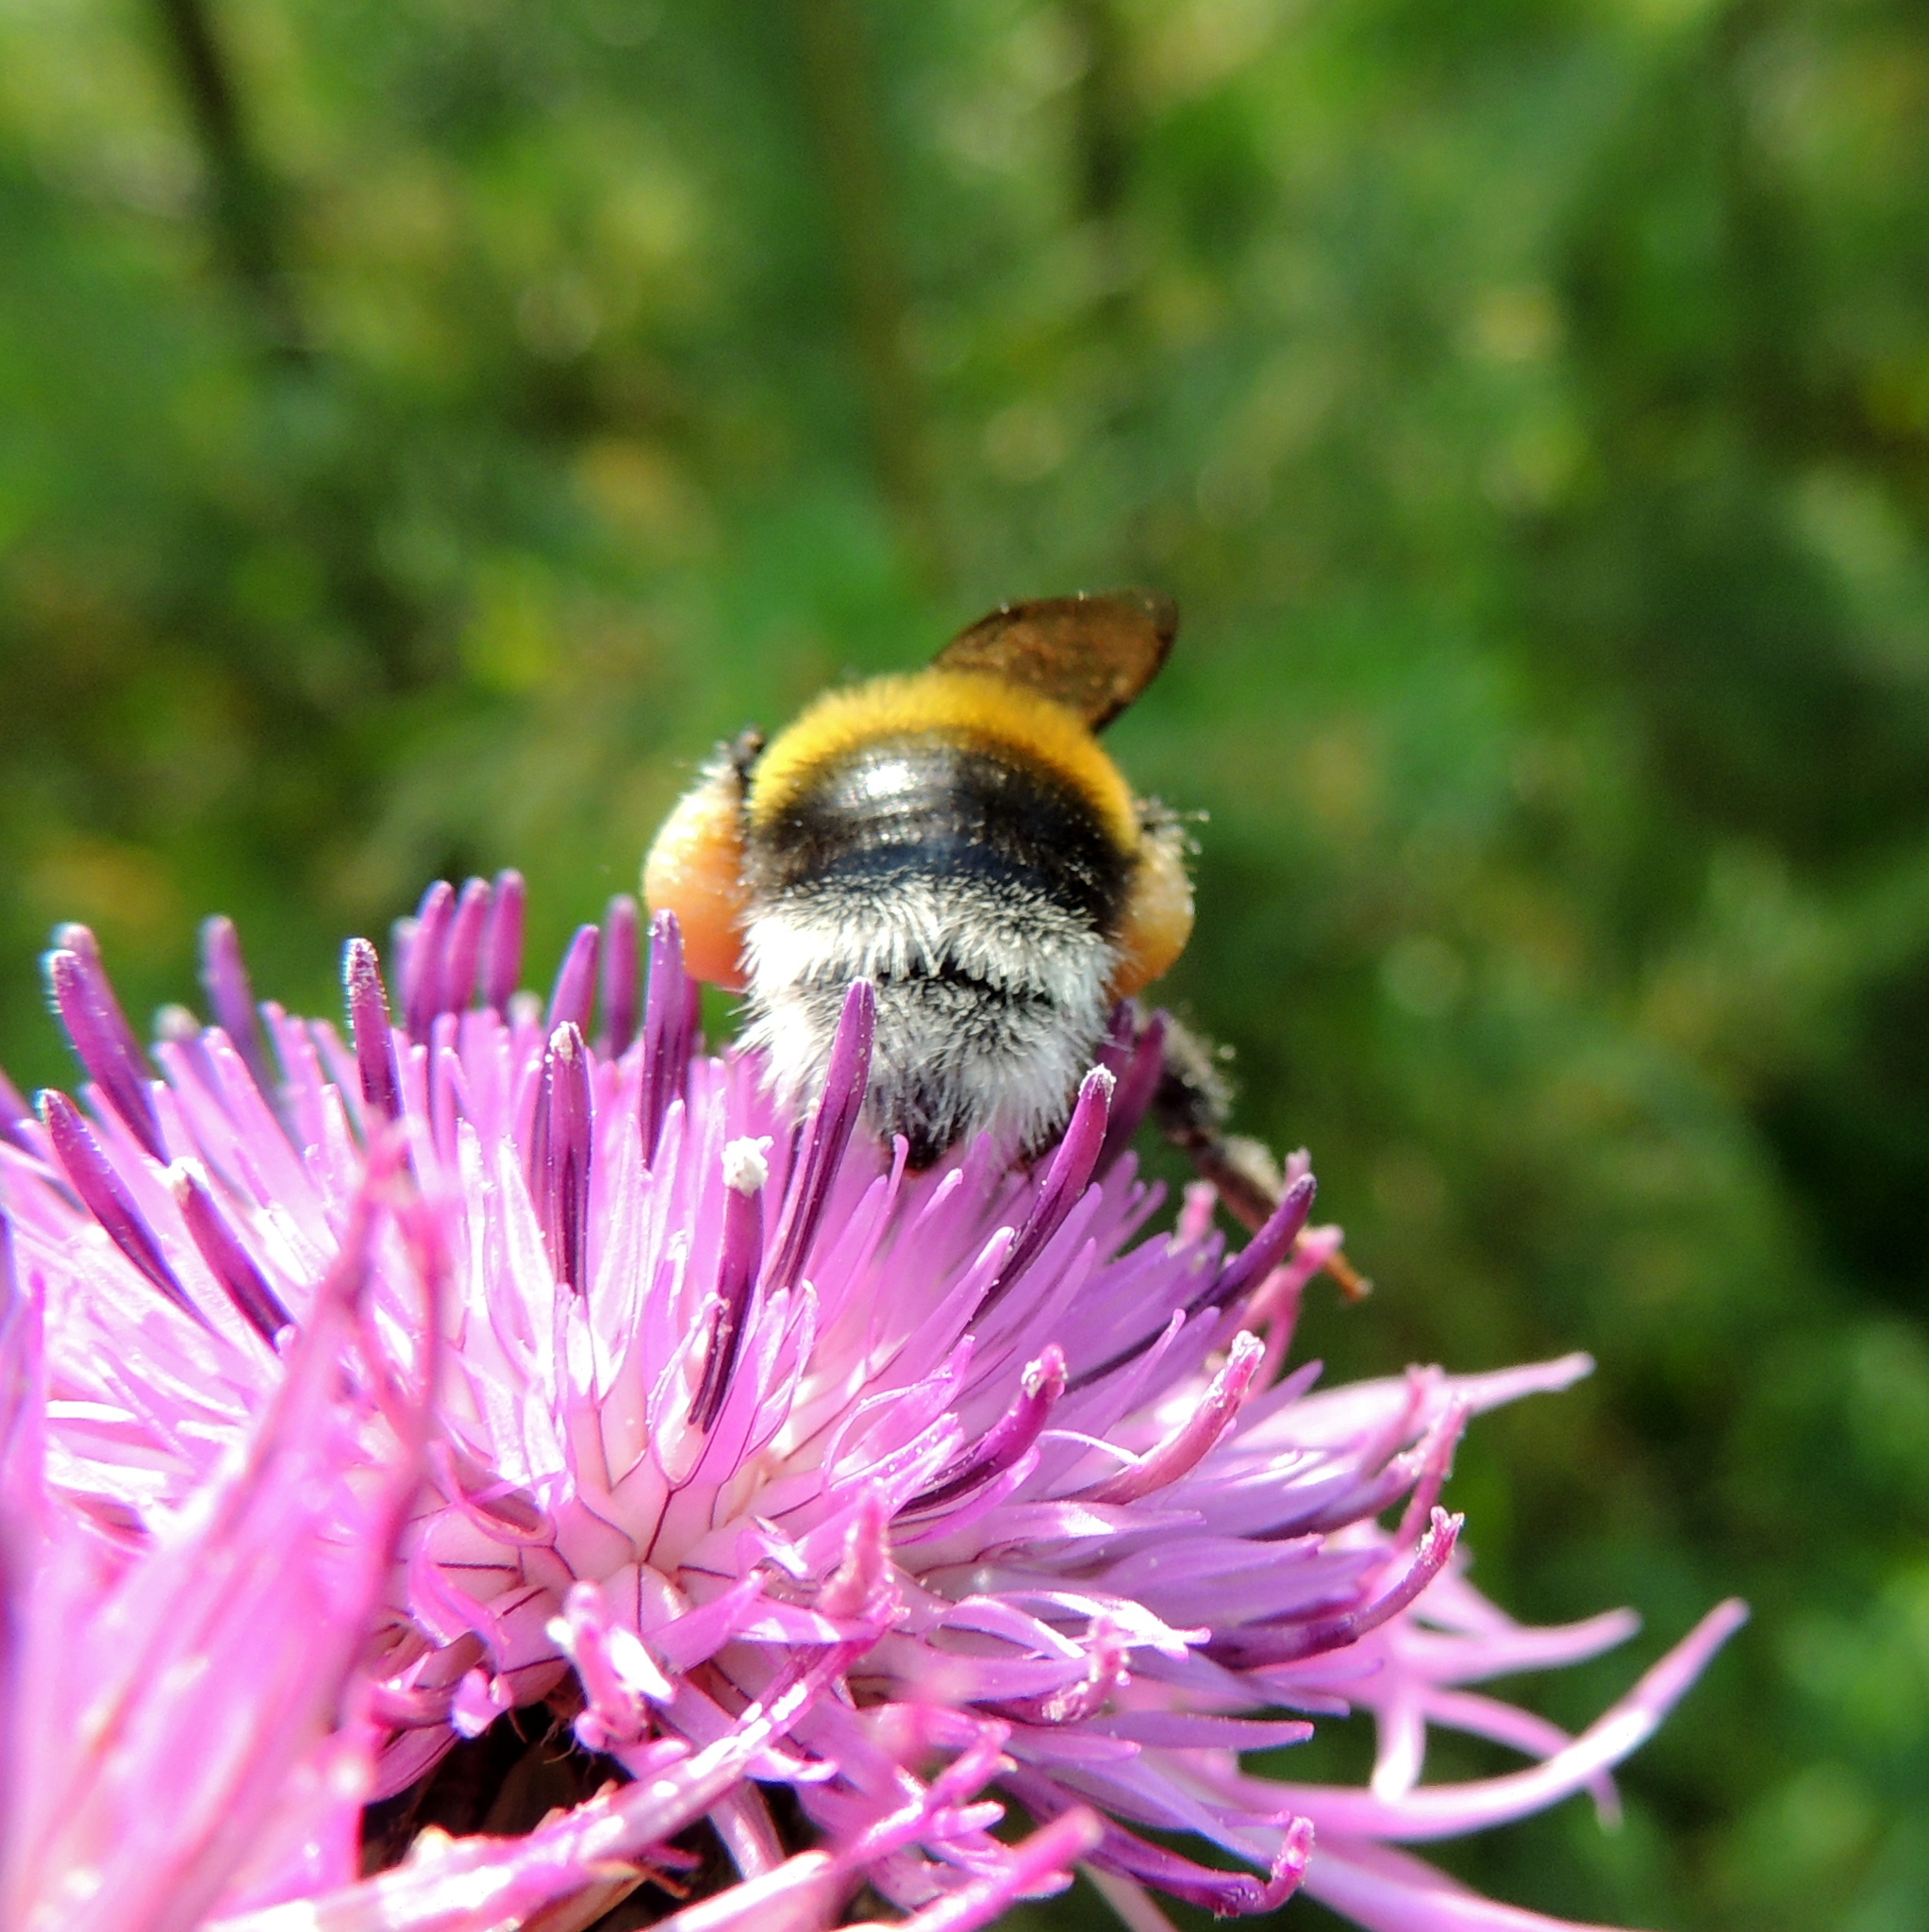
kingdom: Animalia
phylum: Arthropoda
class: Insecta
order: Hymenoptera
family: Apidae
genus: Bombus
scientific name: Bombus
